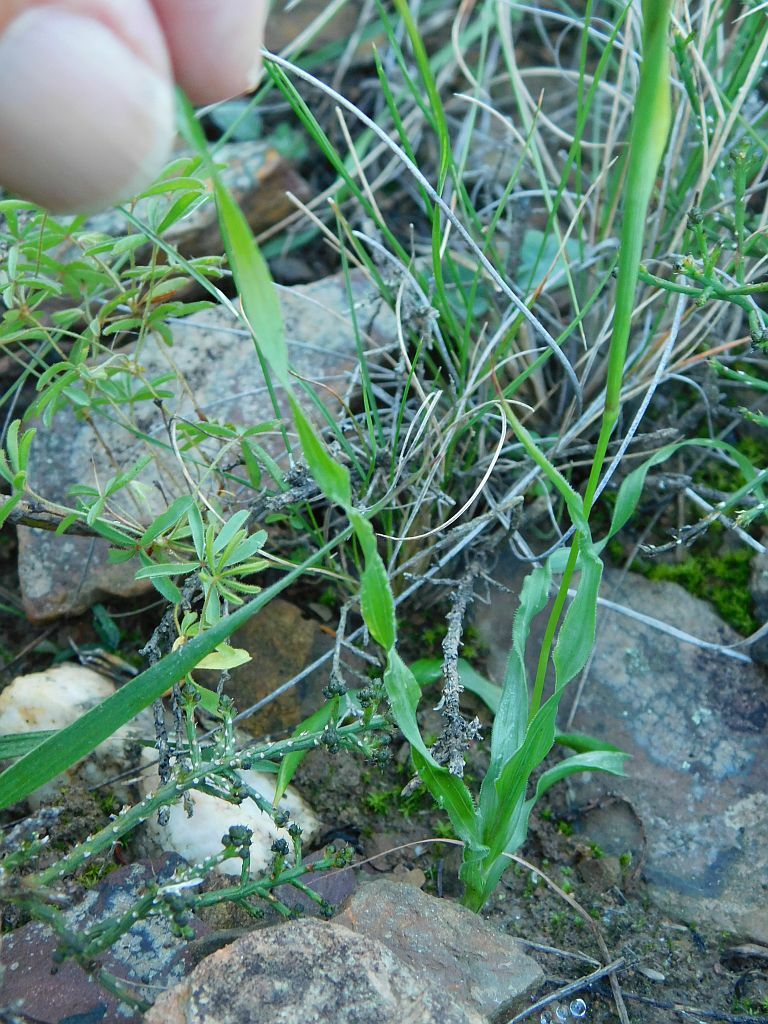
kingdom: Plantae
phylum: Tracheophyta
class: Liliopsida
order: Asparagales
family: Iridaceae
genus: Moraea
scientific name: Moraea fergusoniae
